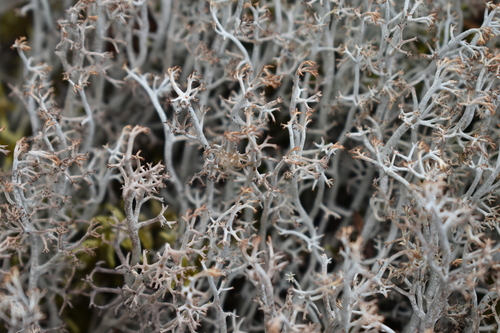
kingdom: Fungi
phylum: Ascomycota
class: Lecanoromycetes
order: Lecanorales
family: Cladoniaceae
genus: Cladonia
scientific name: Cladonia rangiferina
